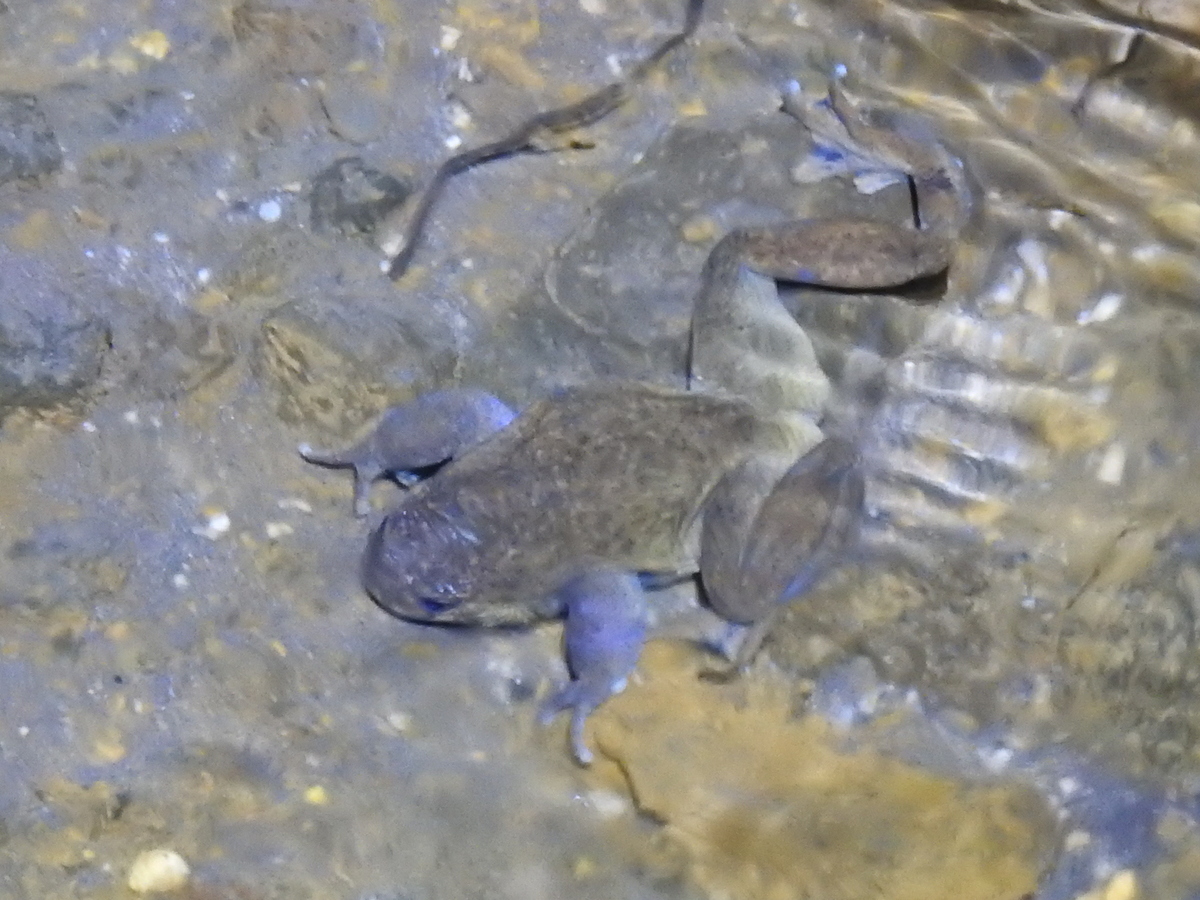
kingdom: Animalia
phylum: Chordata
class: Amphibia
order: Anura
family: Alsodidae
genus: Alsodes
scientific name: Alsodes pehuenche
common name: Pehuenche spiny-chest frog
